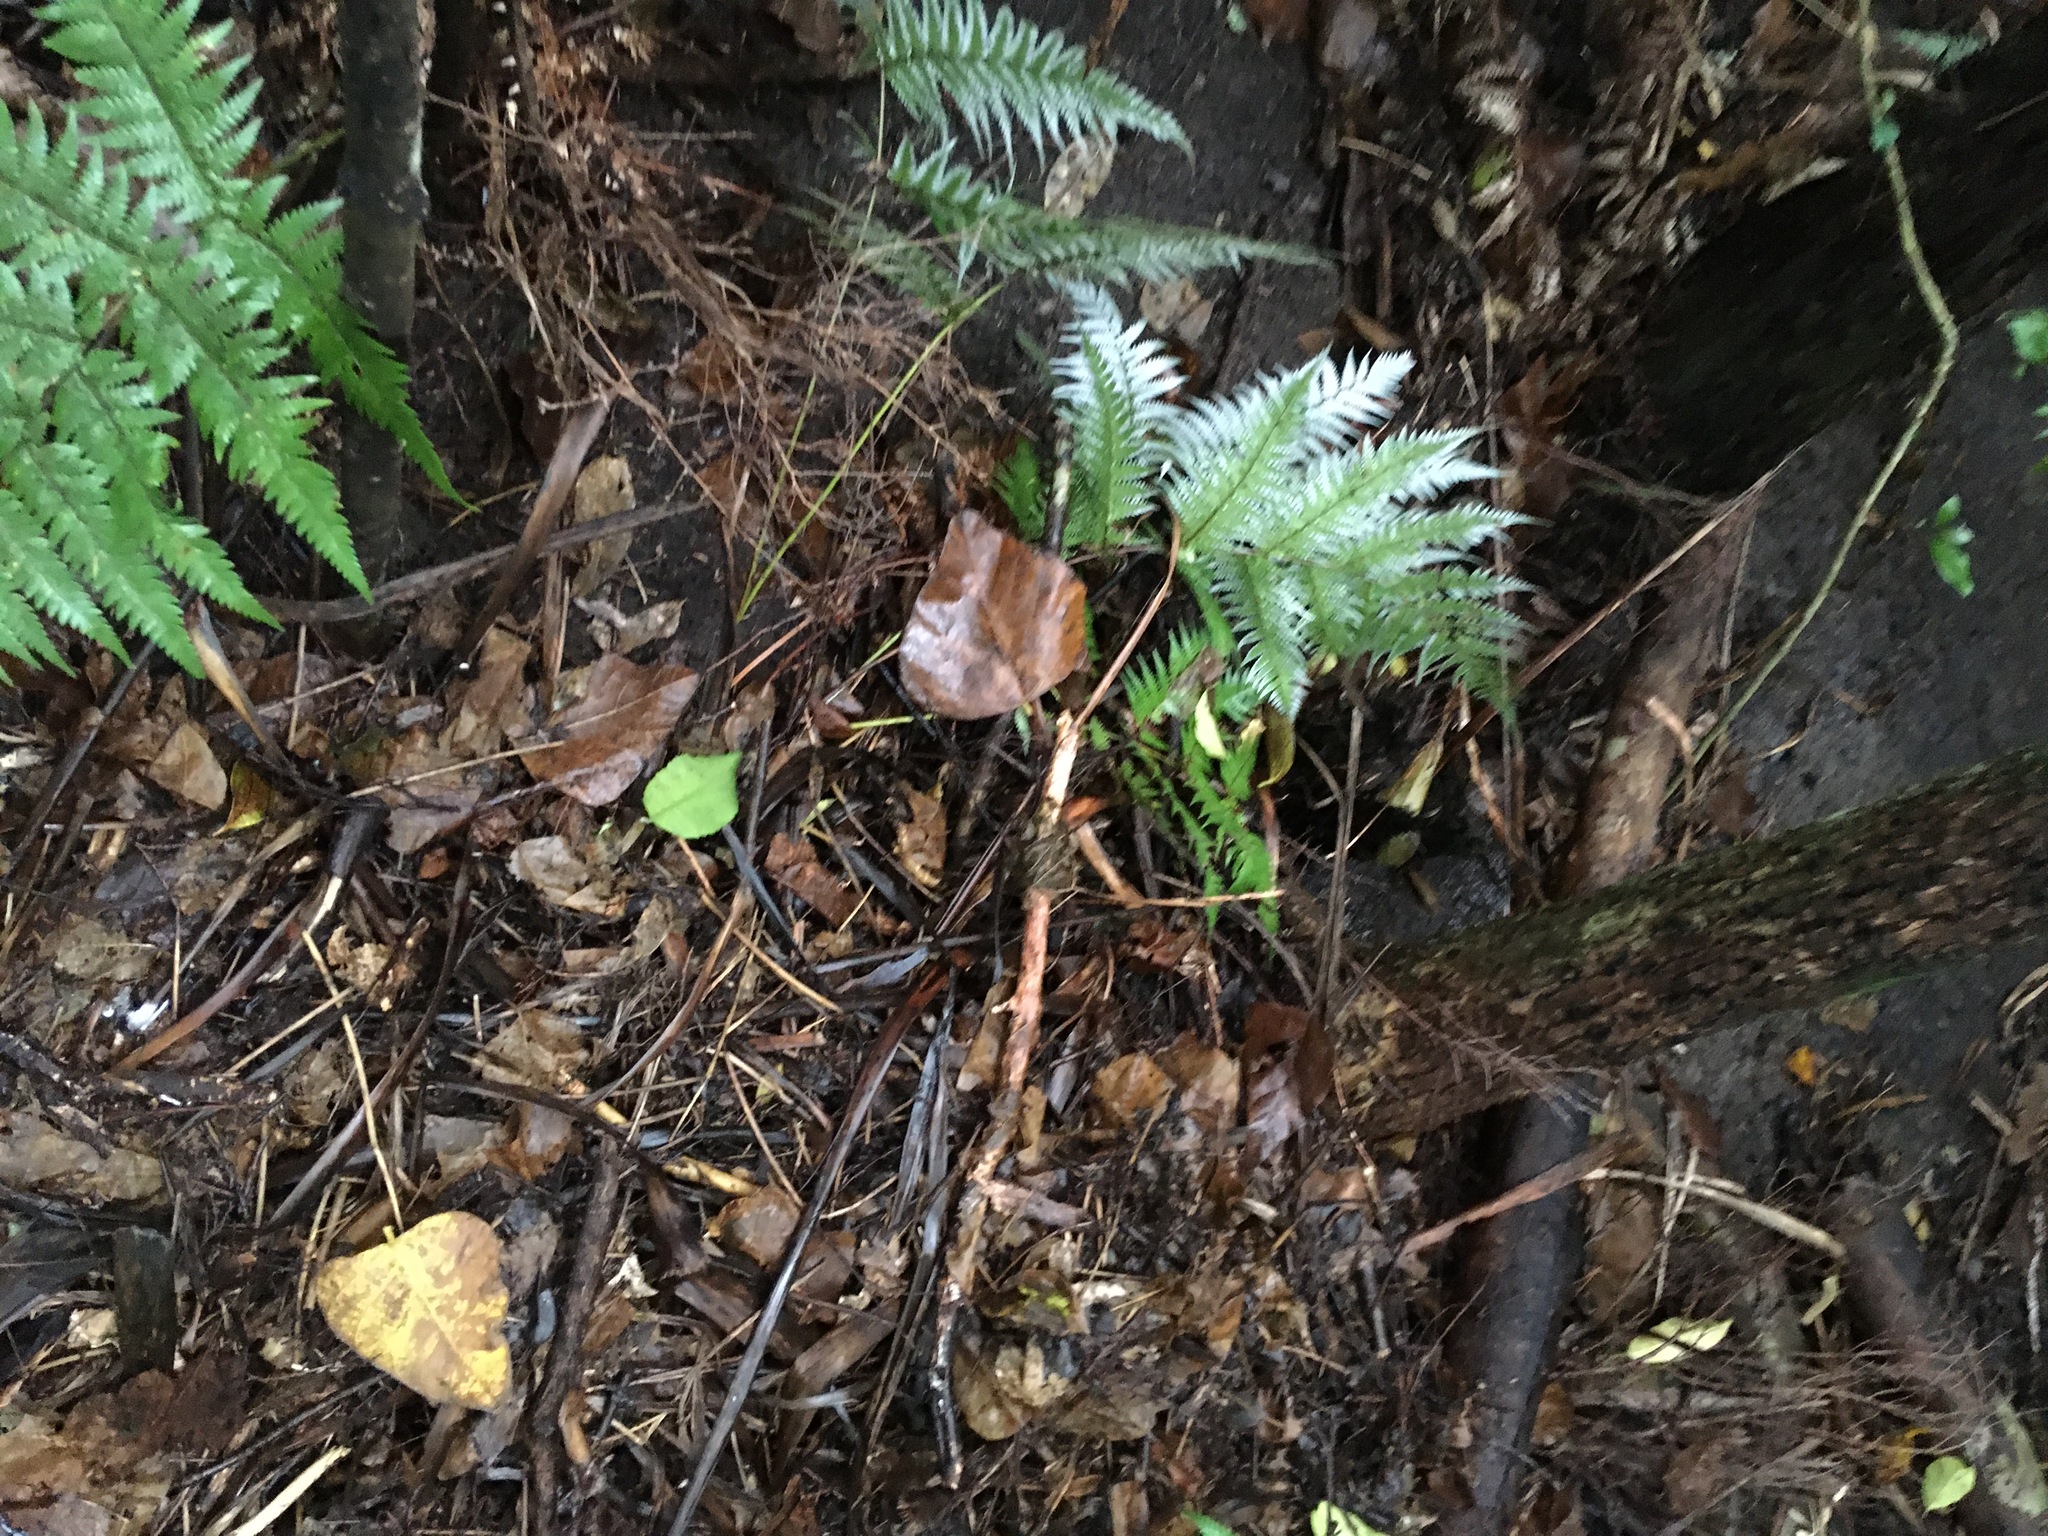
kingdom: Plantae
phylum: Tracheophyta
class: Polypodiopsida
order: Cyatheales
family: Cyatheaceae
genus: Alsophila
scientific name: Alsophila dealbata
